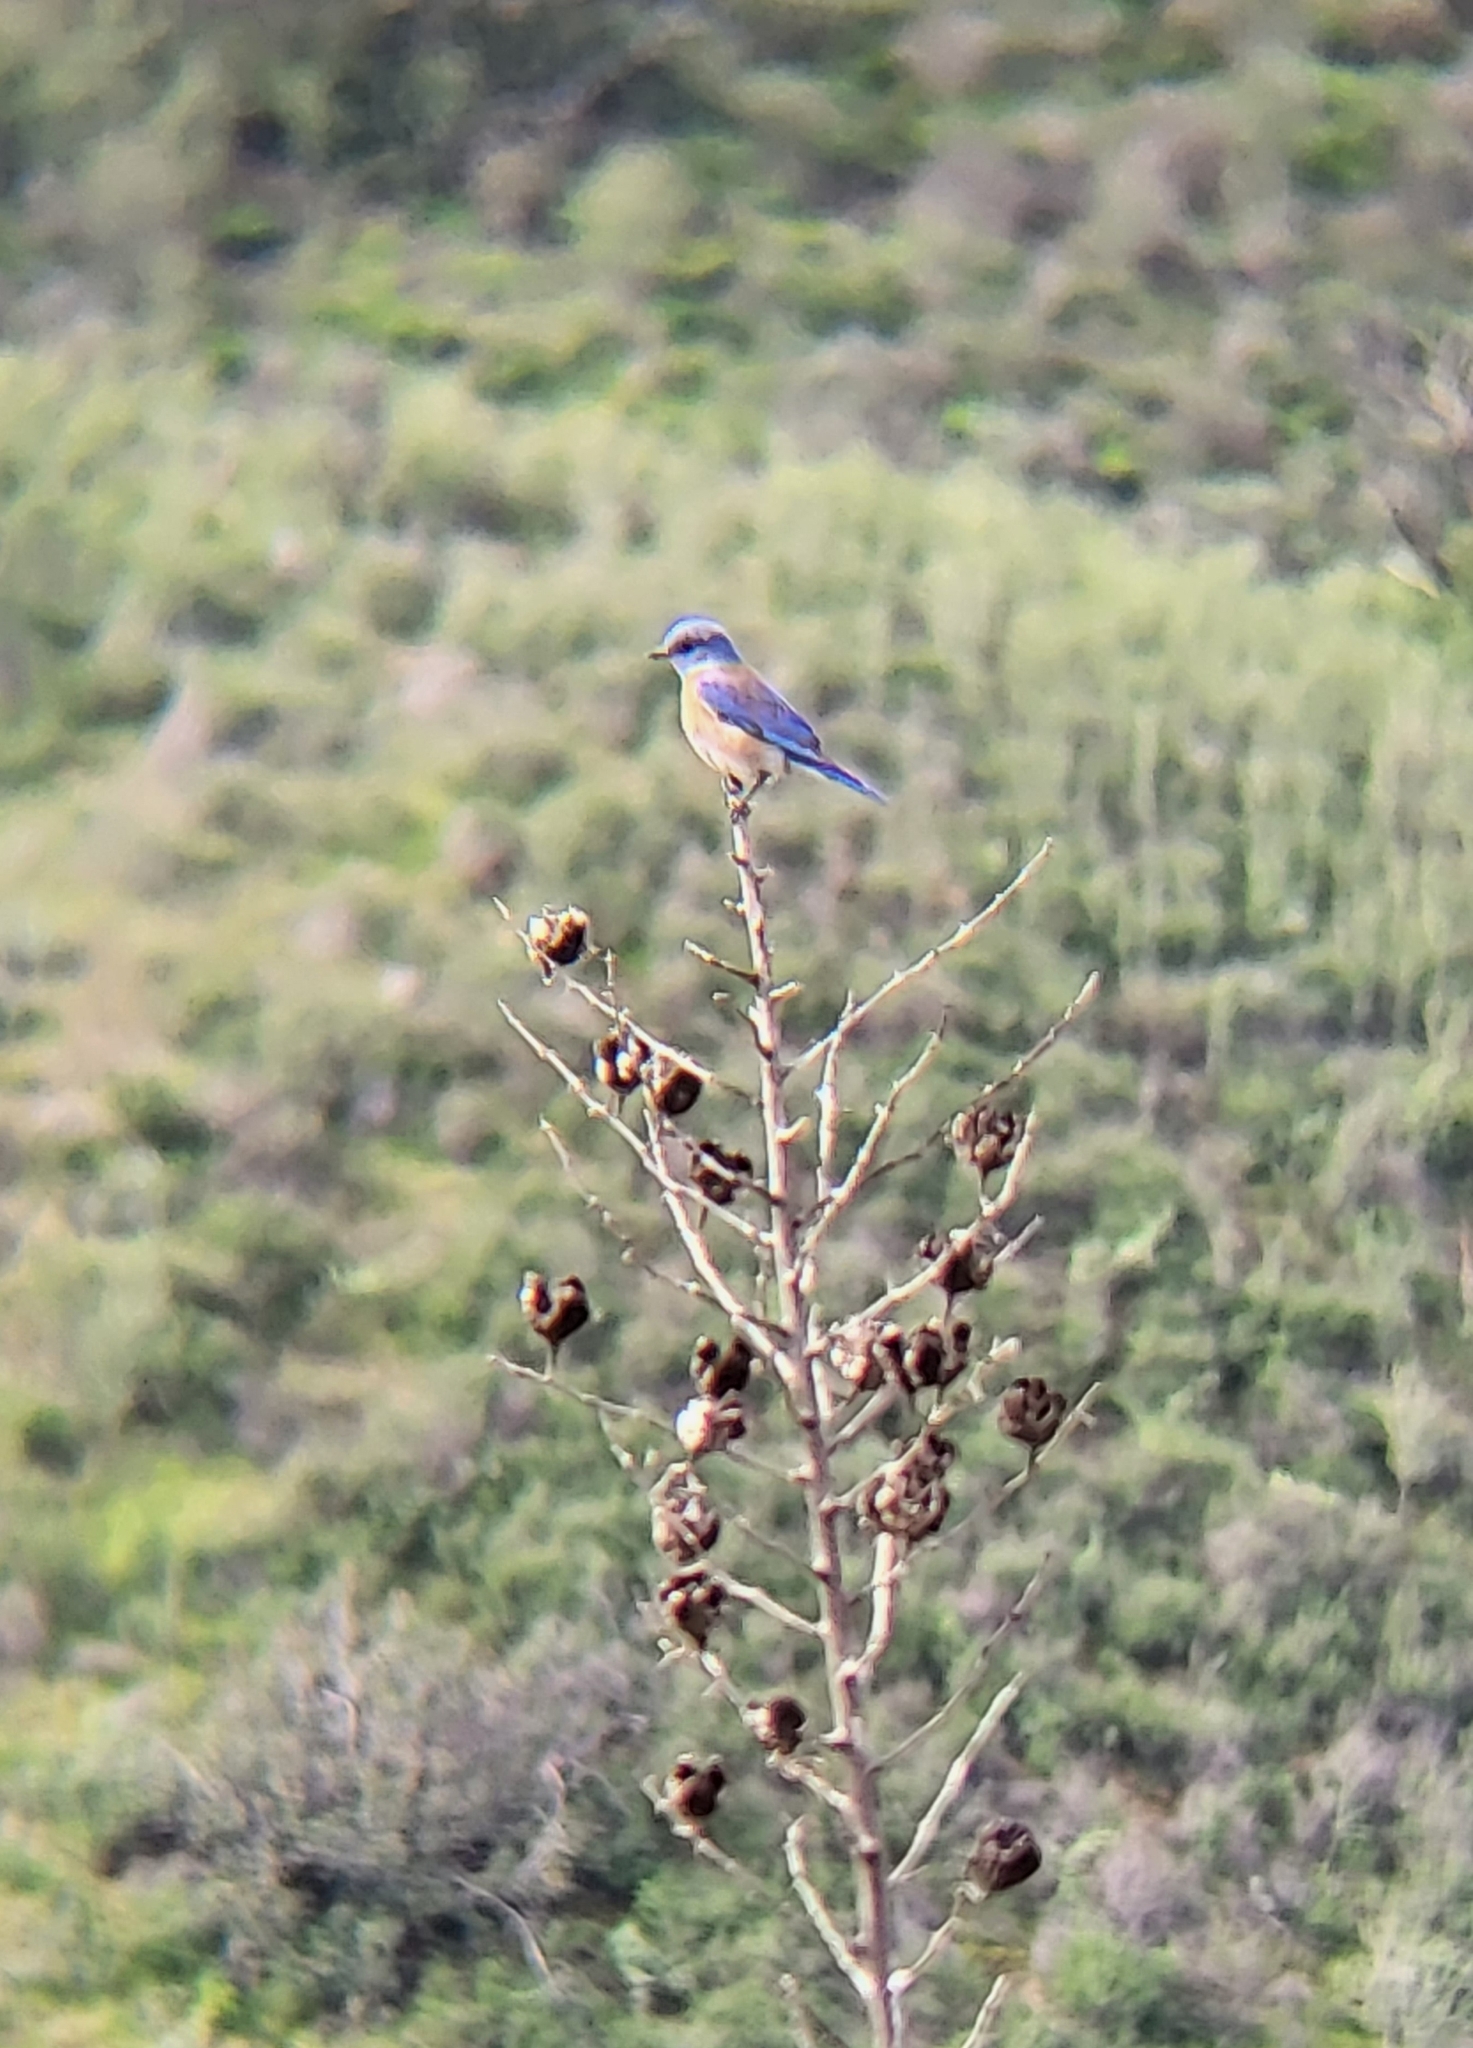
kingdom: Animalia
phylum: Chordata
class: Aves
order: Passeriformes
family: Turdidae
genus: Sialia
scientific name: Sialia mexicana
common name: Western bluebird
